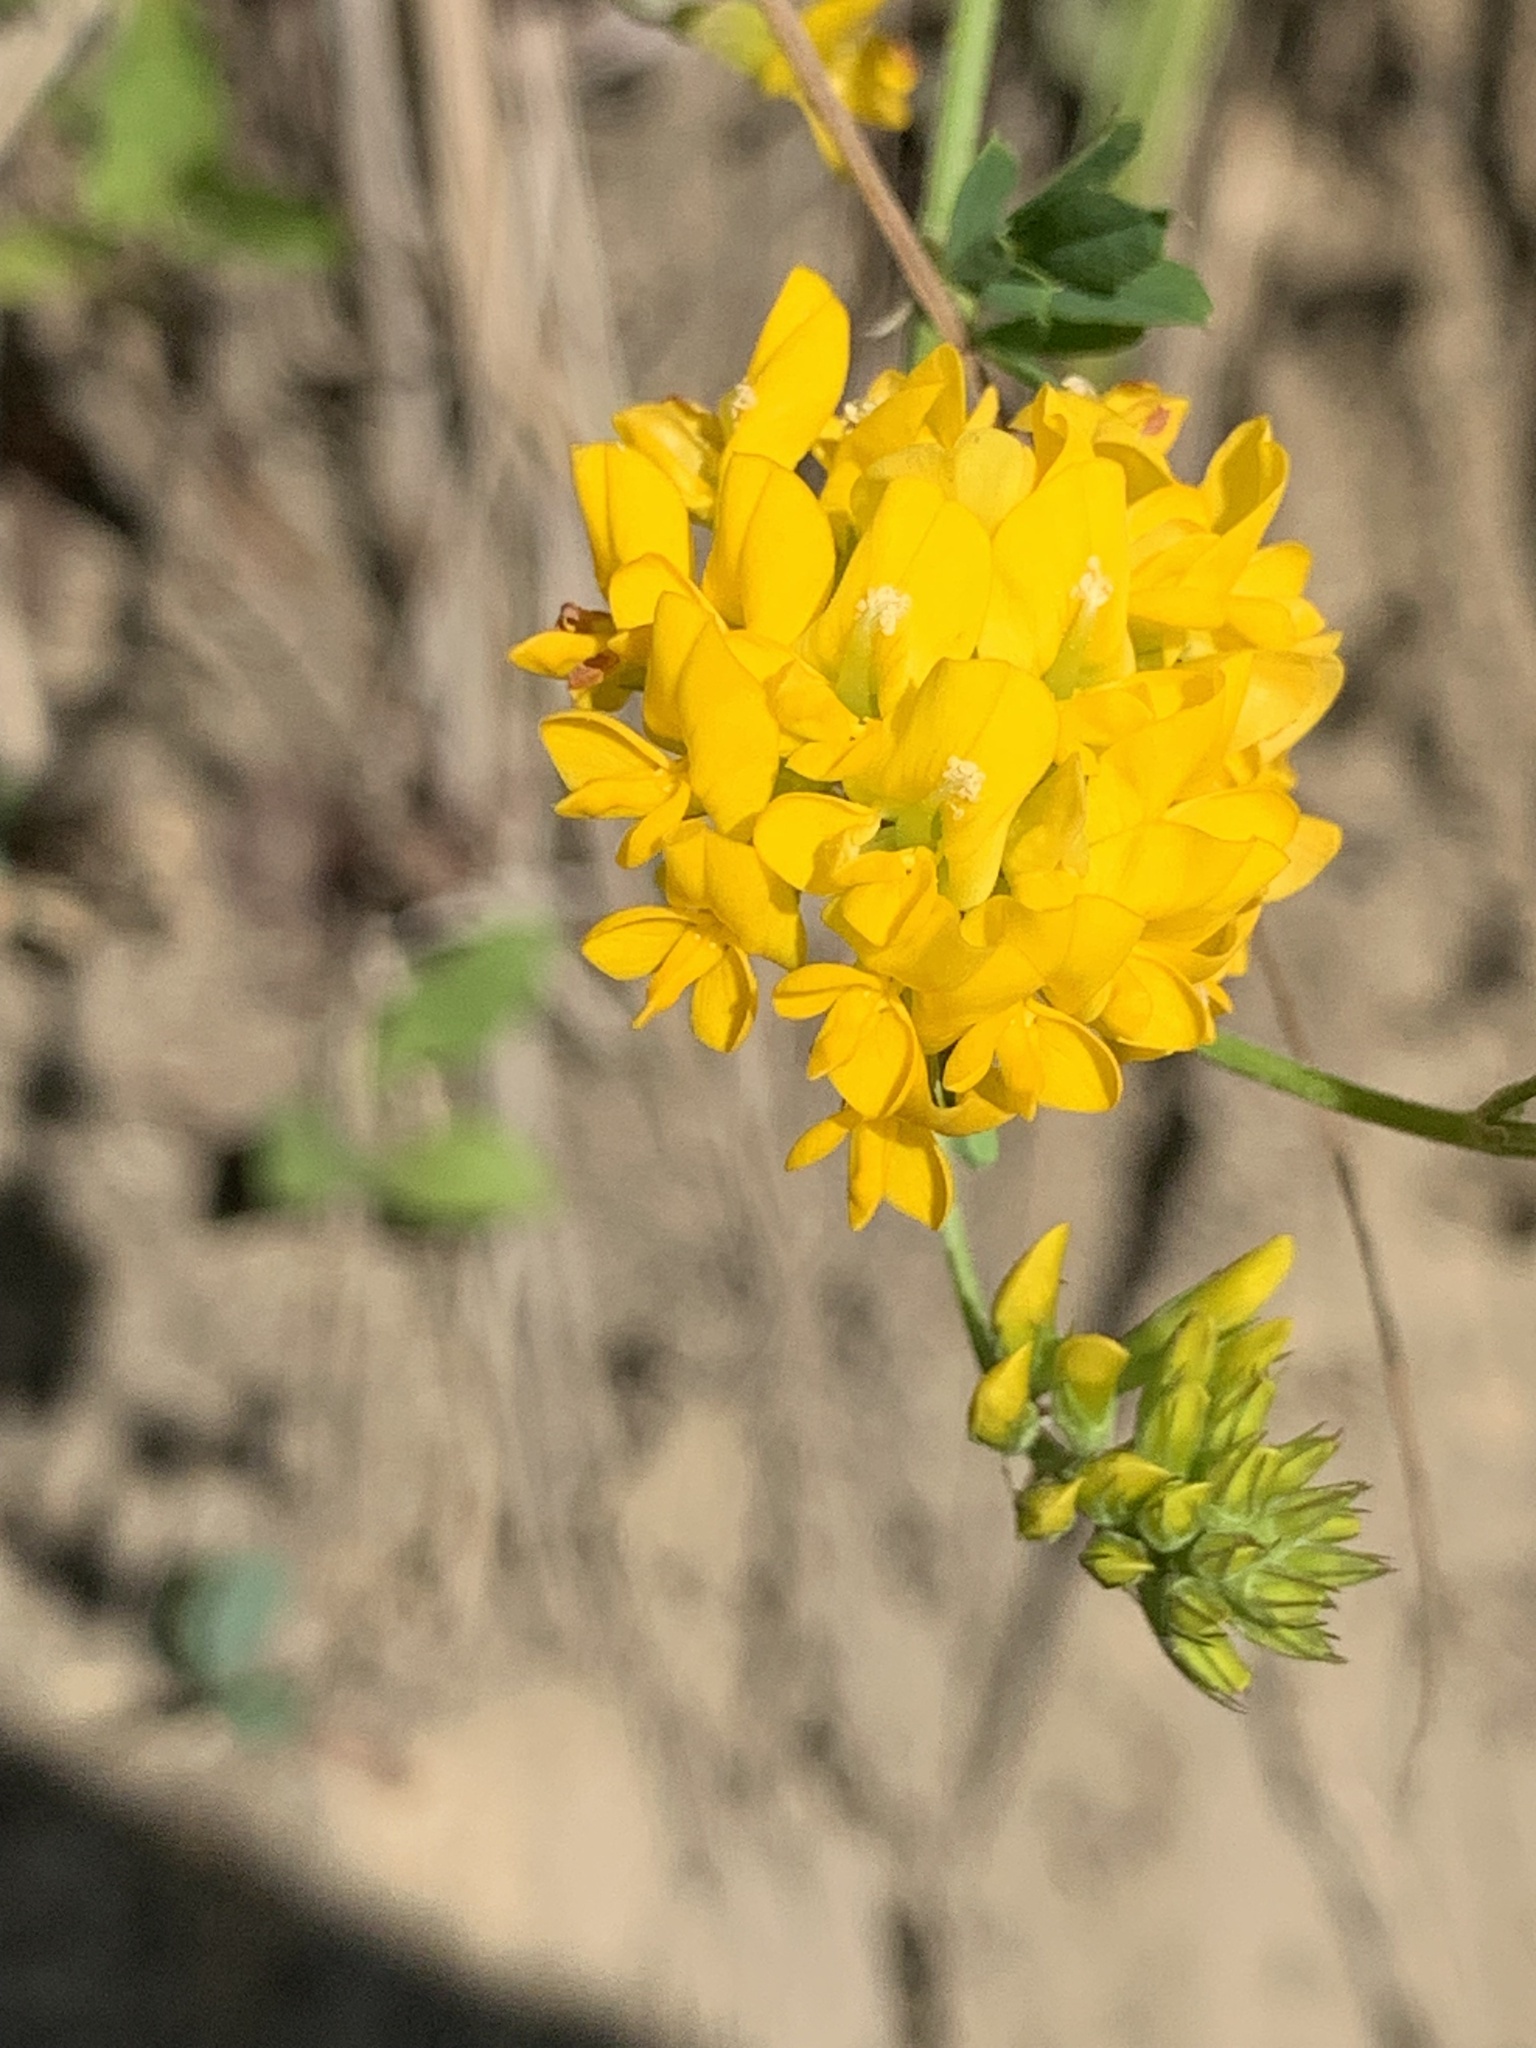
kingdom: Plantae
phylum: Tracheophyta
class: Magnoliopsida
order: Fabales
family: Fabaceae
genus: Medicago
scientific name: Medicago falcata
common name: Sickle medick
